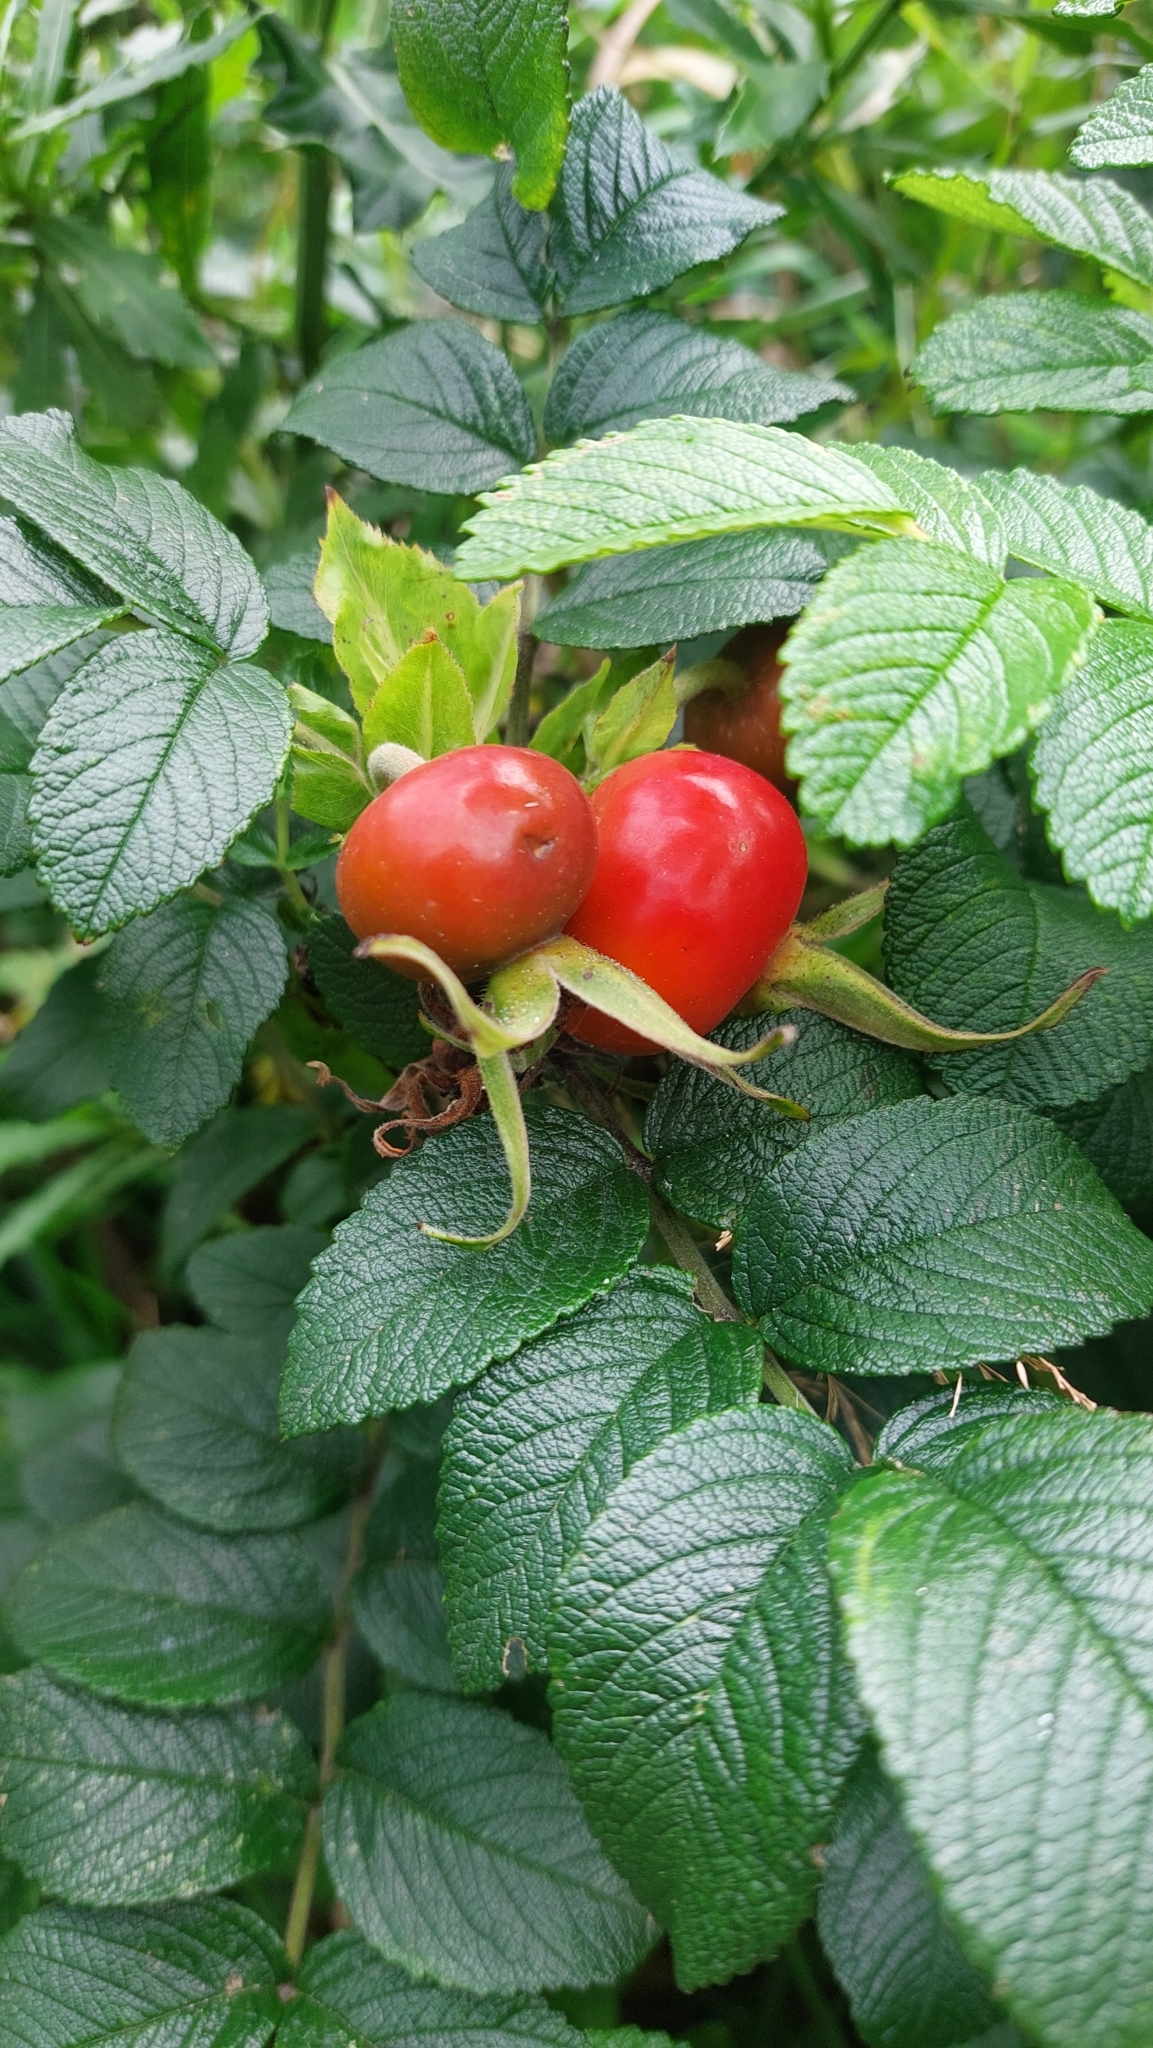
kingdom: Plantae
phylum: Tracheophyta
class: Magnoliopsida
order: Rosales
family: Rosaceae
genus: Rosa
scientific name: Rosa rugosa
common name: Japanese rose
